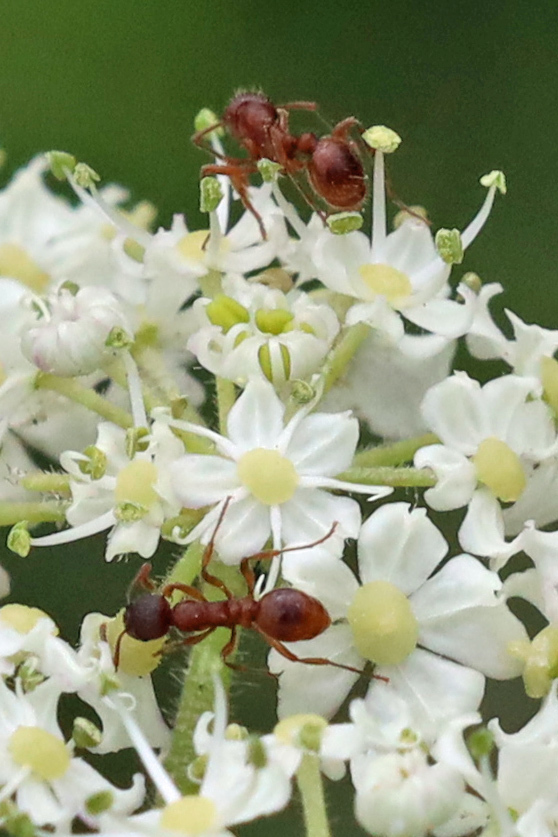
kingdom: Animalia
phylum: Arthropoda
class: Insecta
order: Hymenoptera
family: Formicidae
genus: Myrmica
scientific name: Myrmica
